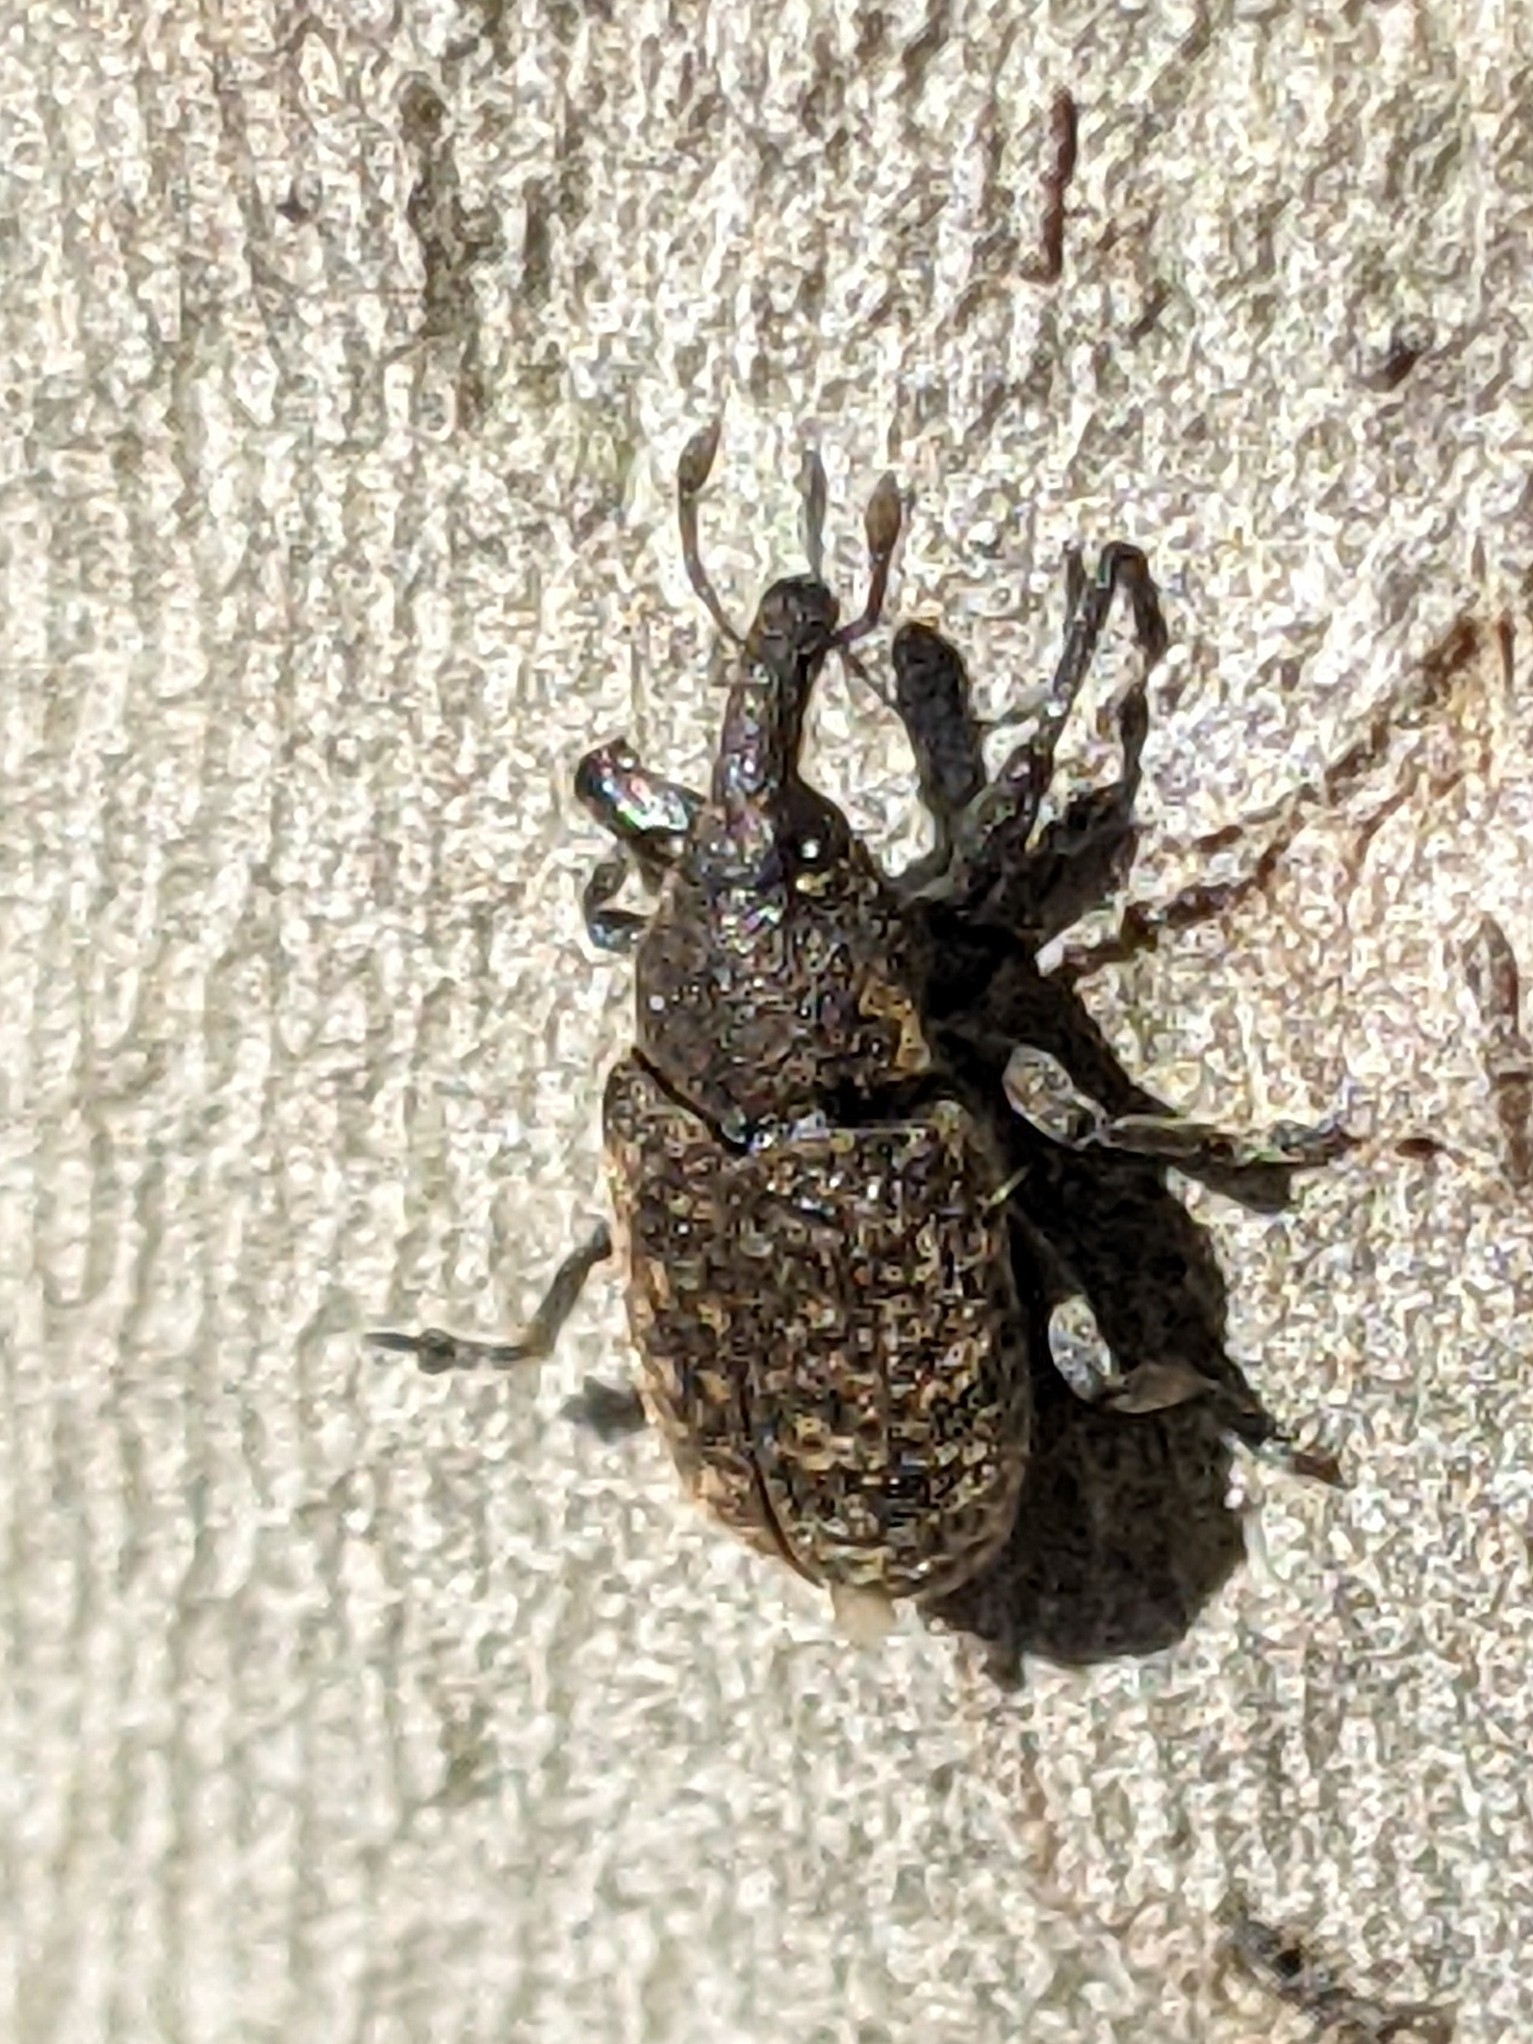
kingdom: Animalia
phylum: Arthropoda
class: Insecta
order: Coleoptera
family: Curculionidae
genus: Larinus
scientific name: Larinus carlinae
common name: Weevil
